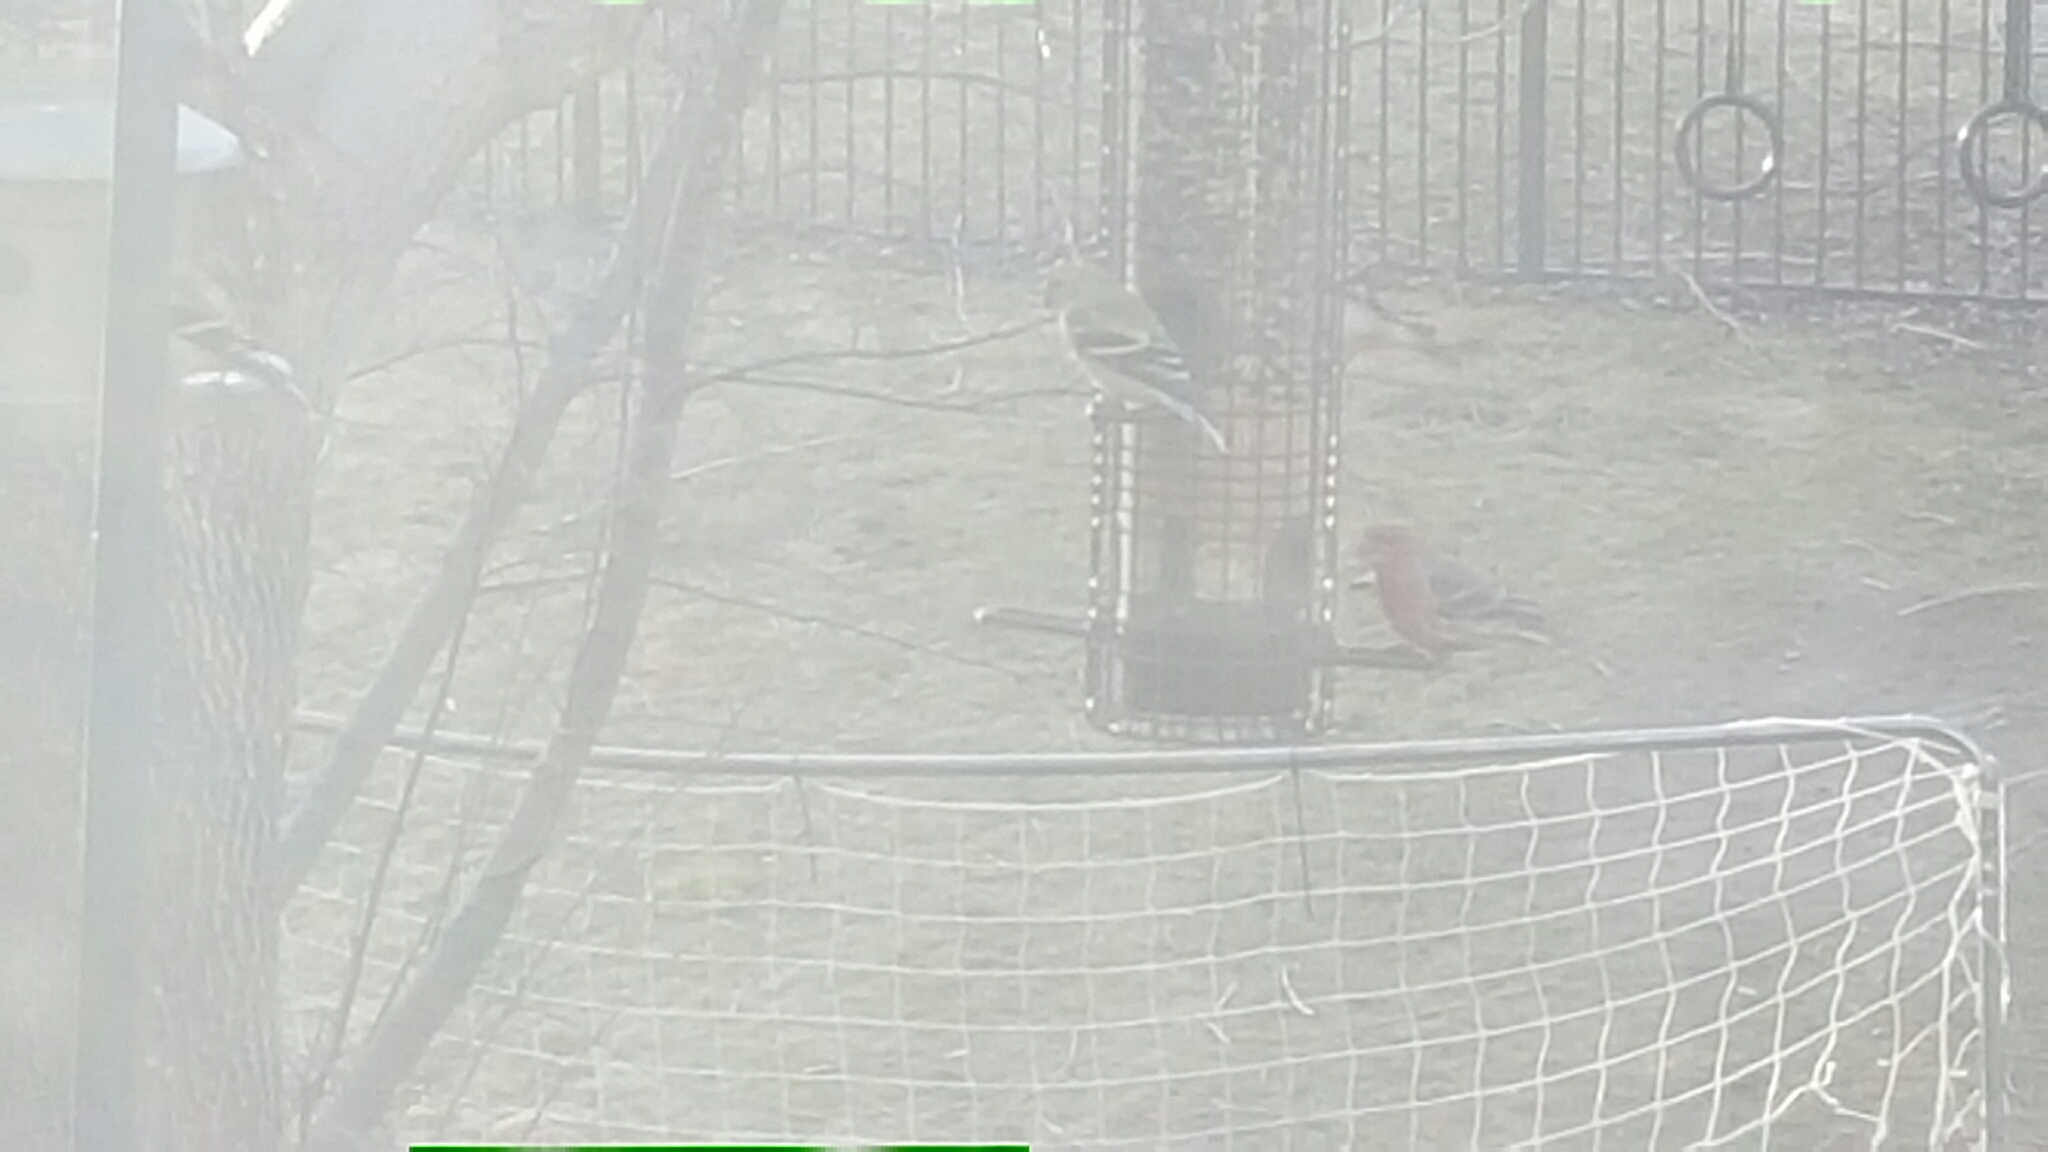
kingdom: Animalia
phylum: Chordata
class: Aves
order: Passeriformes
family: Fringillidae
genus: Haemorhous
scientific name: Haemorhous mexicanus
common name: House finch
